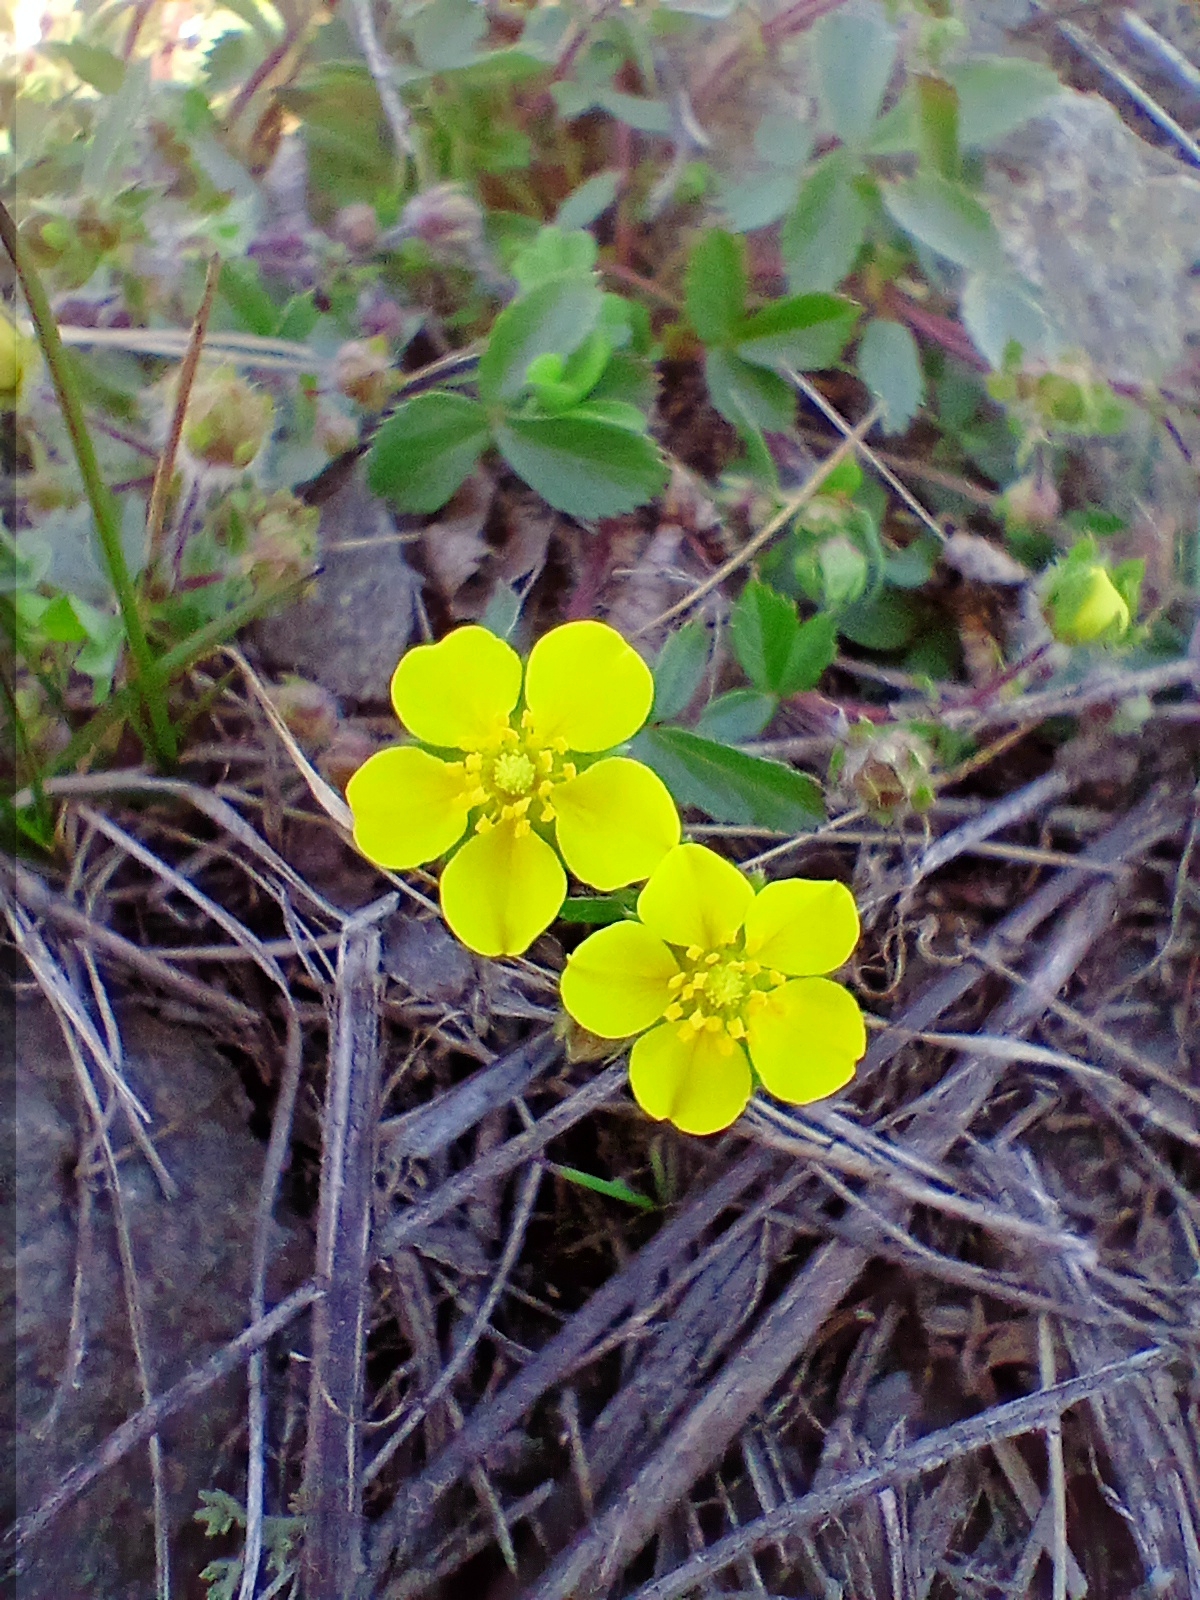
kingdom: Plantae
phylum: Tracheophyta
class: Magnoliopsida
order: Rosales
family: Rosaceae
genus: Potentilla
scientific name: Potentilla fragarioides
